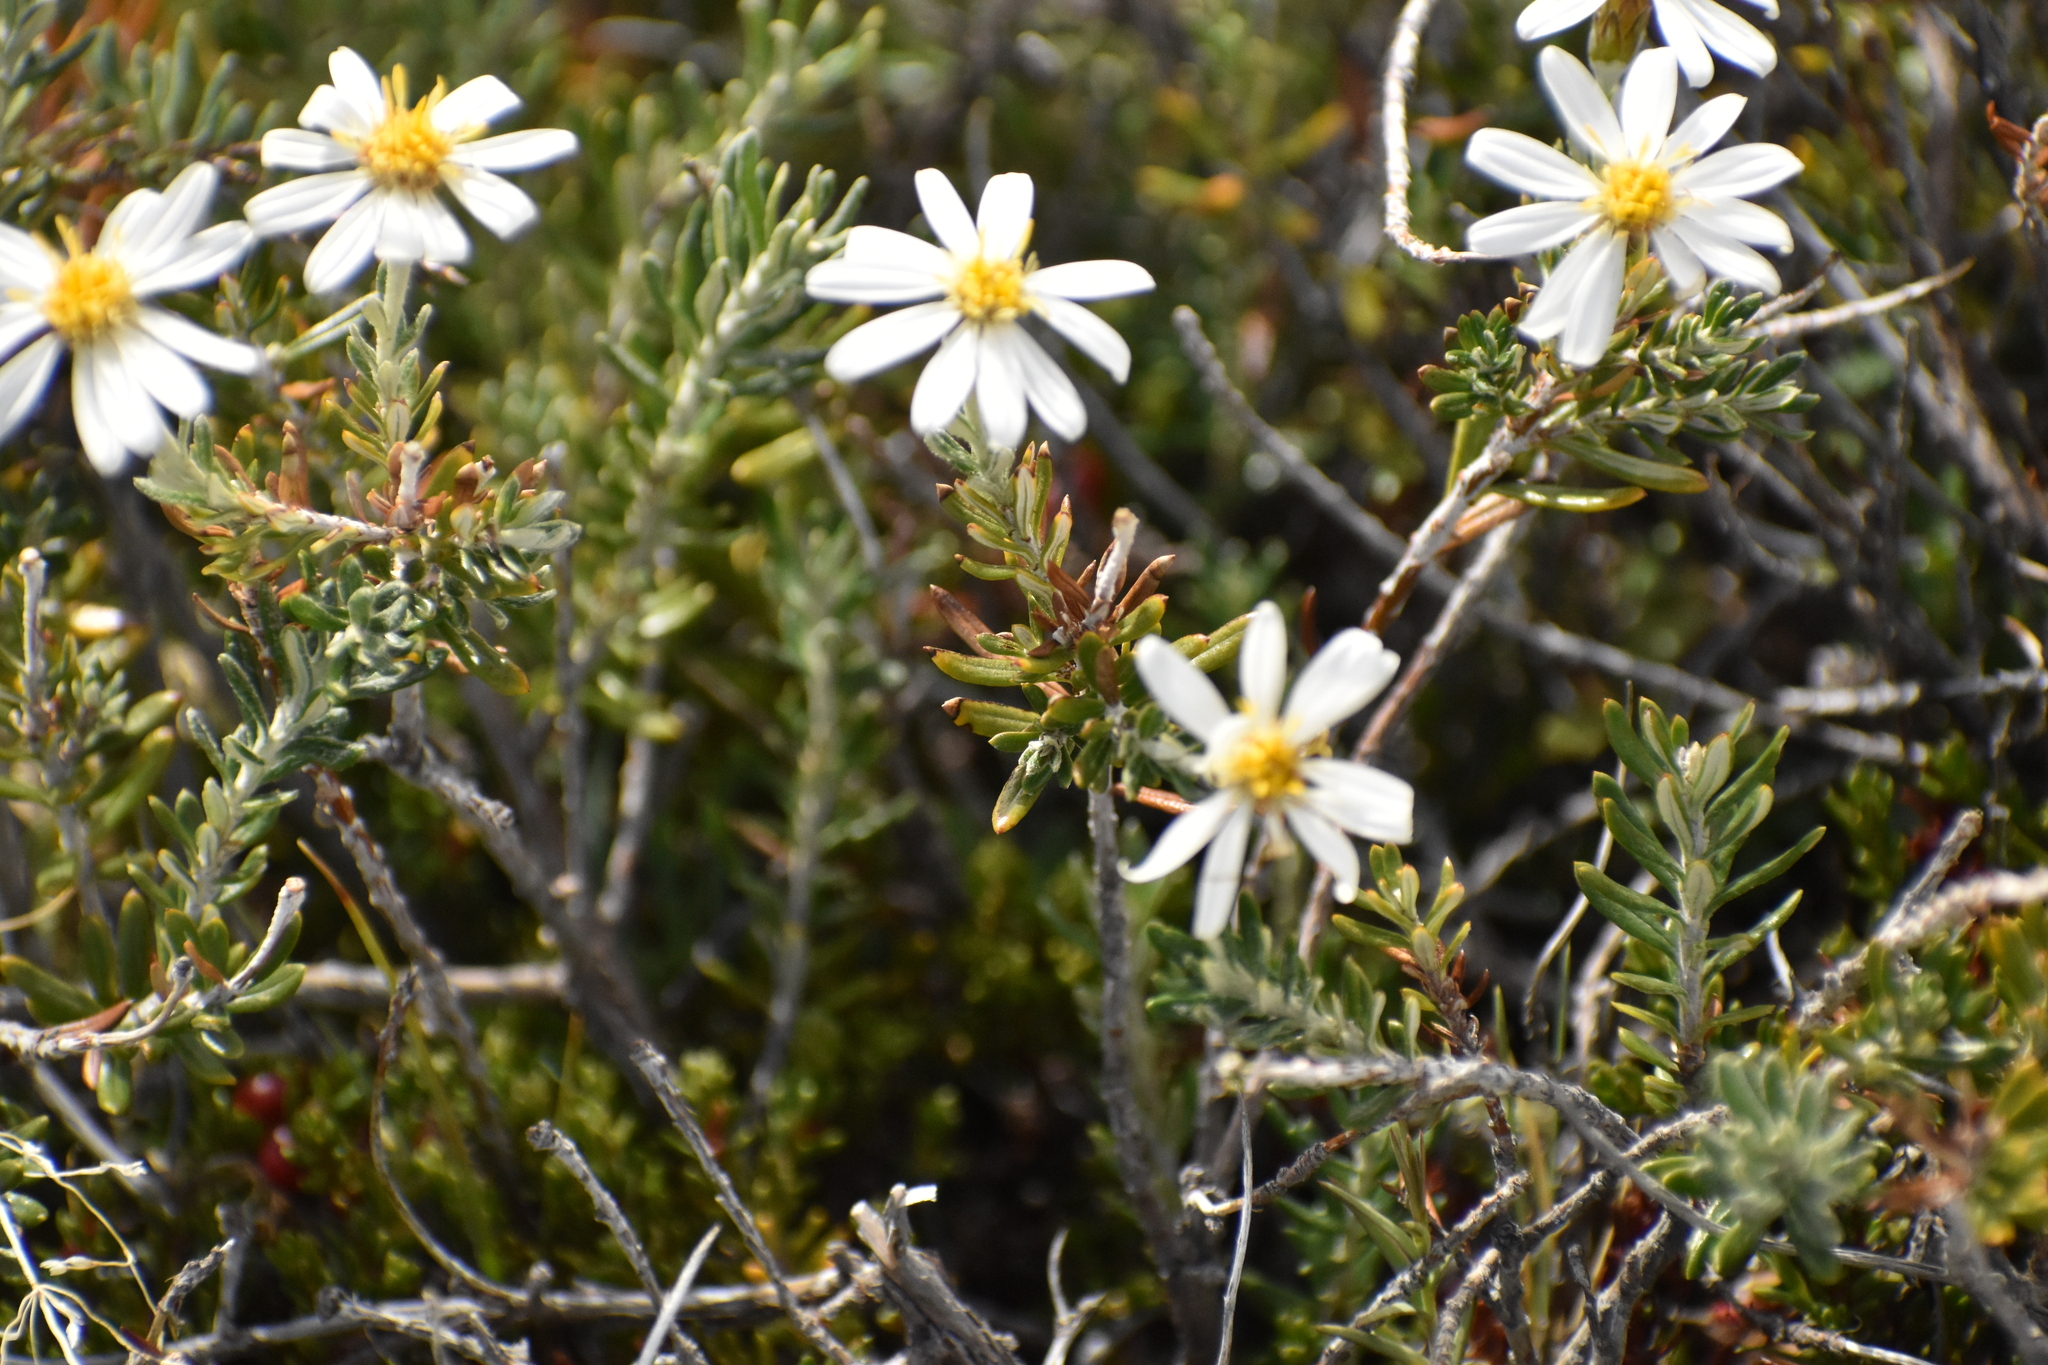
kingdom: Plantae
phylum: Tracheophyta
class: Magnoliopsida
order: Asterales
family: Asteraceae
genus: Chiliotrichum
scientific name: Chiliotrichum diffusum
